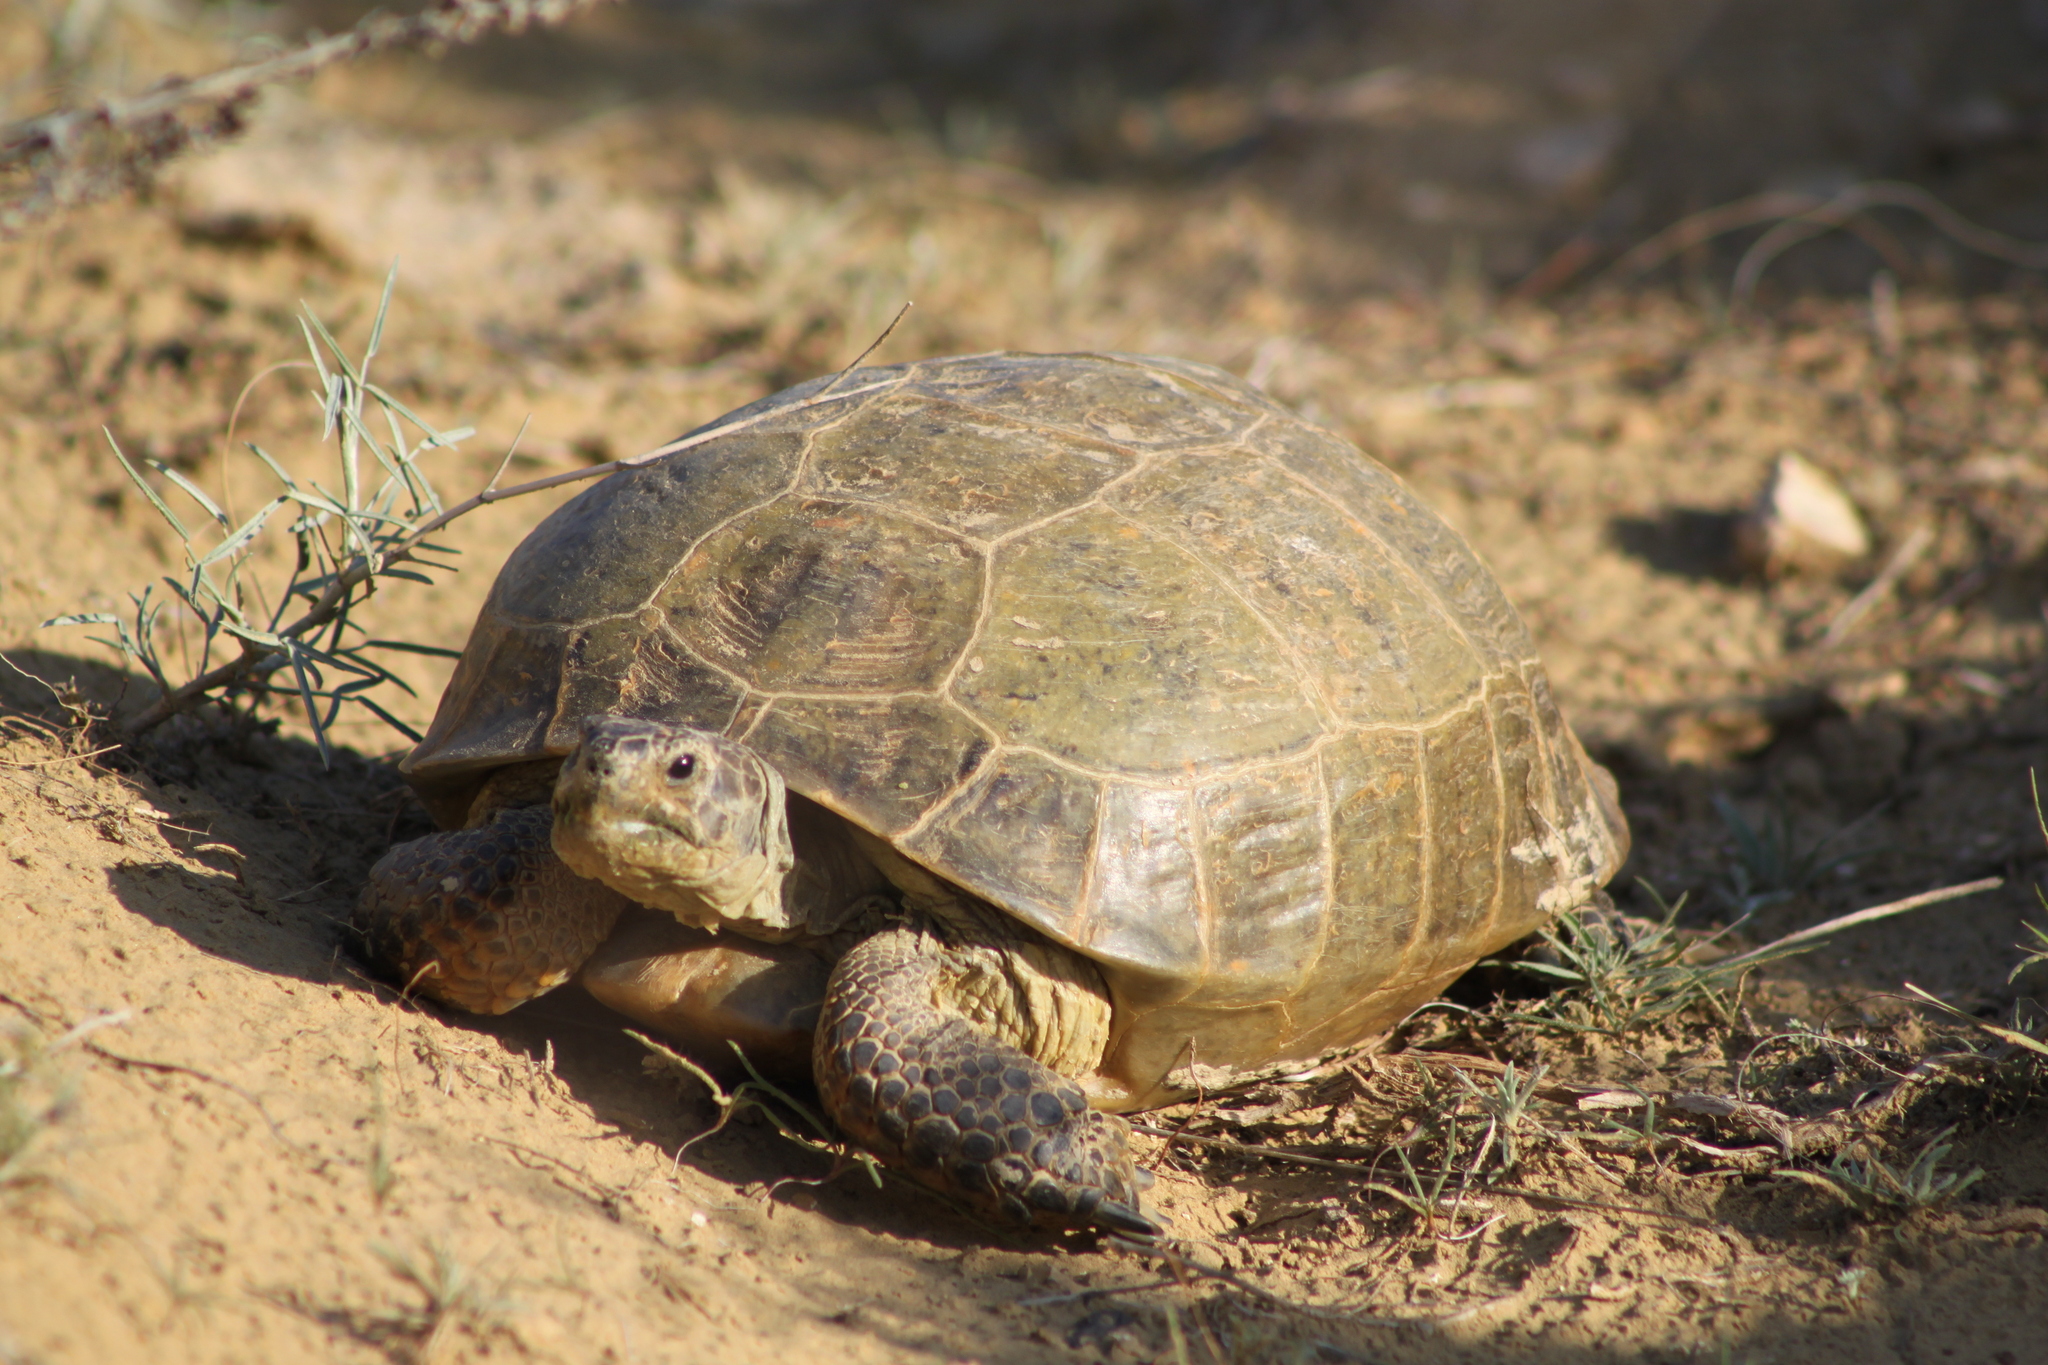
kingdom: Animalia
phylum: Chordata
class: Testudines
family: Testudinidae
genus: Testudo
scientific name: Testudo horsfieldii
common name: Central asia tortoise
